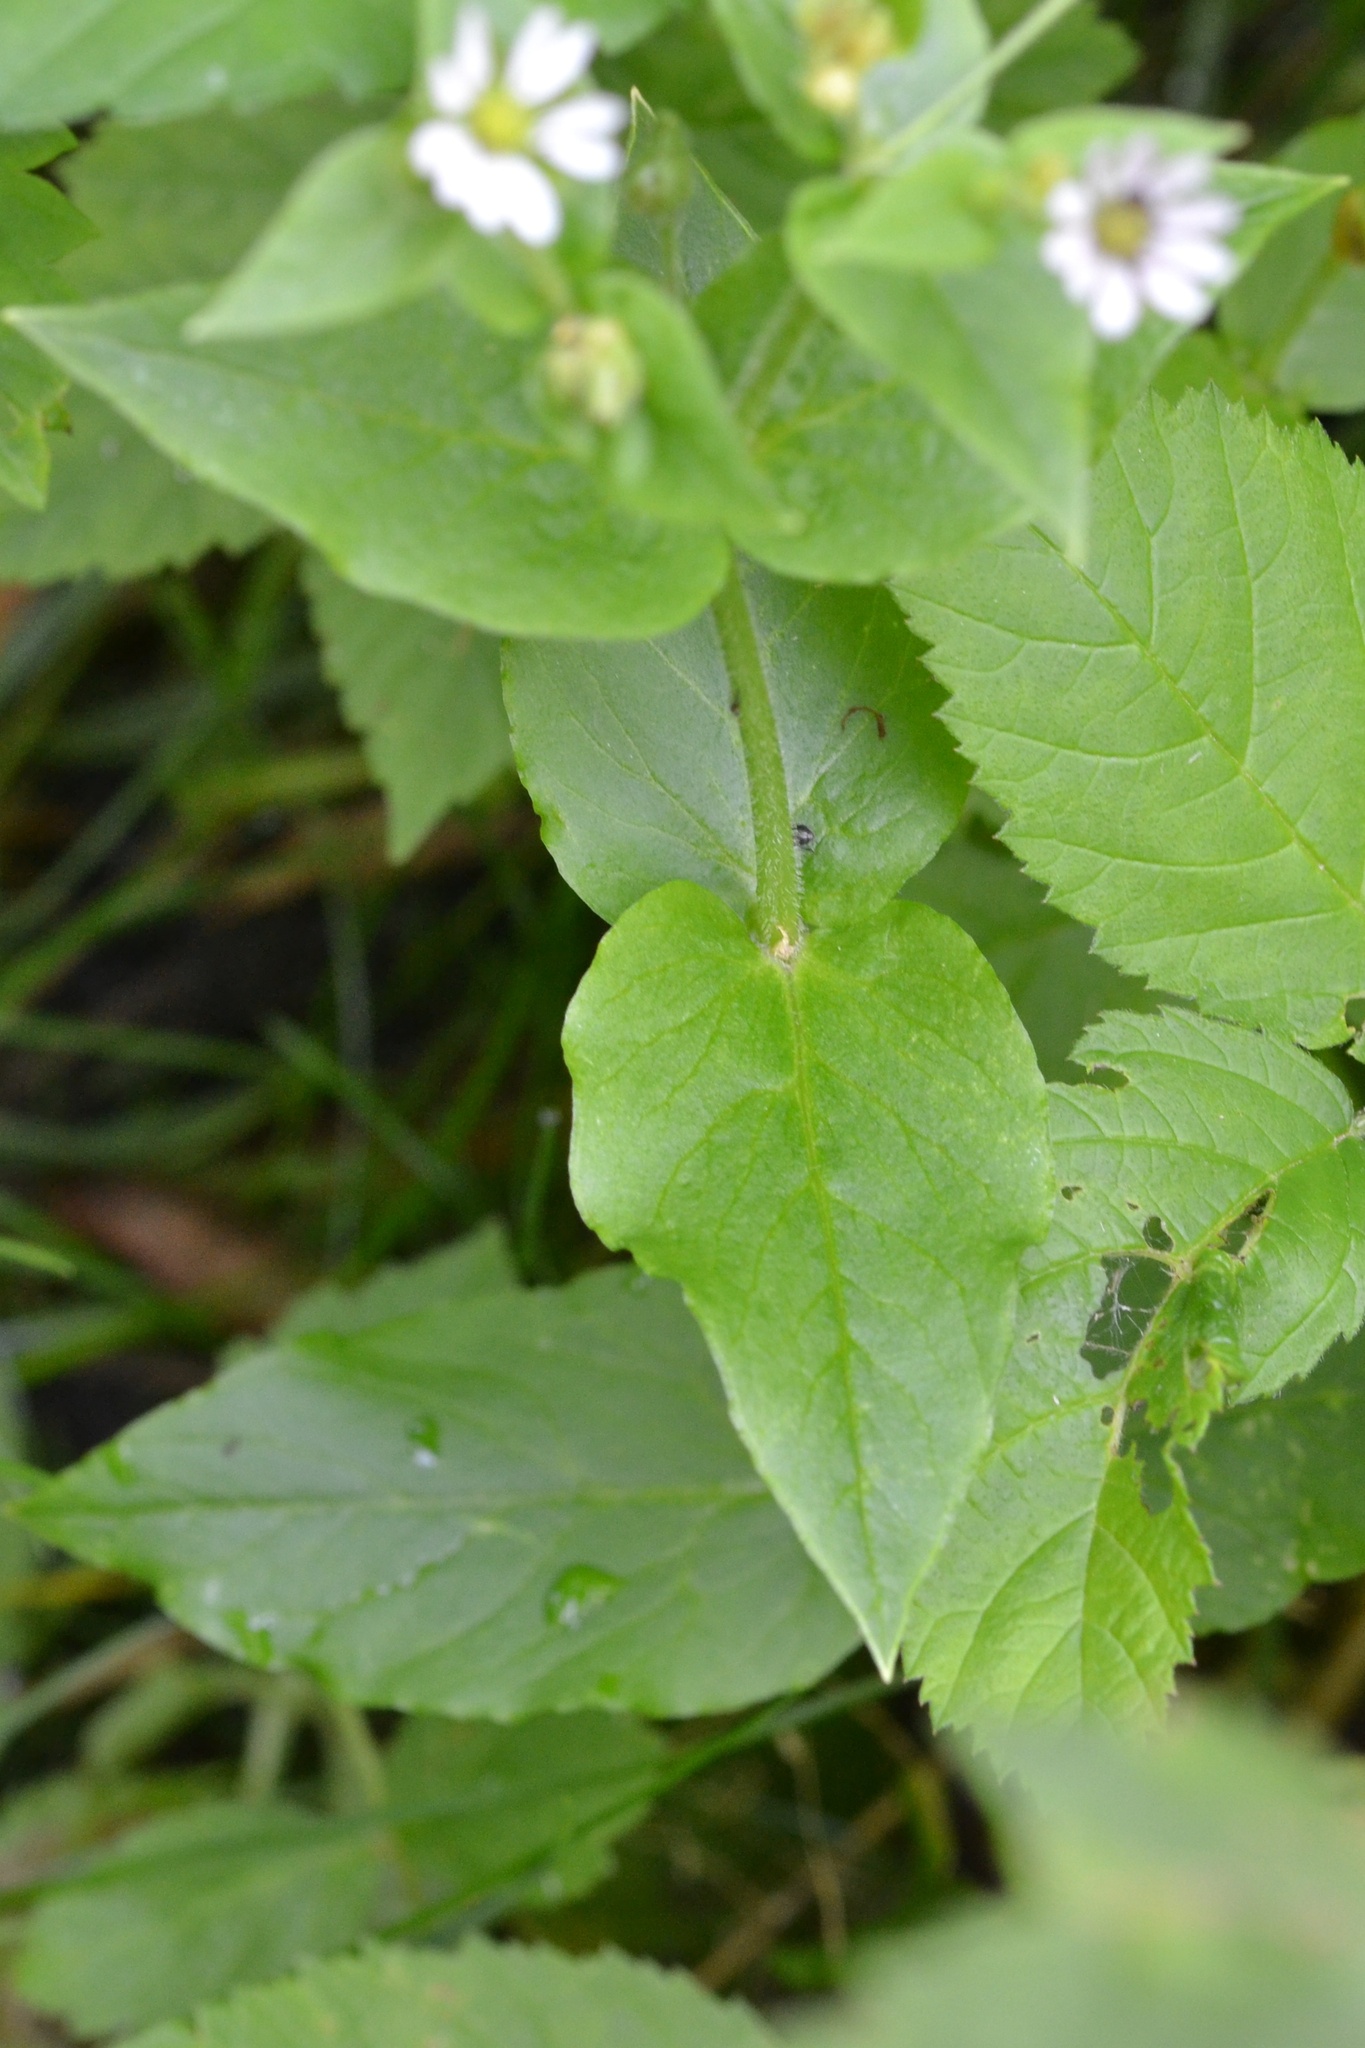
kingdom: Plantae
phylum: Tracheophyta
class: Magnoliopsida
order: Caryophyllales
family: Caryophyllaceae
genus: Stellaria
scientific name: Stellaria aquatica
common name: Water chickweed
